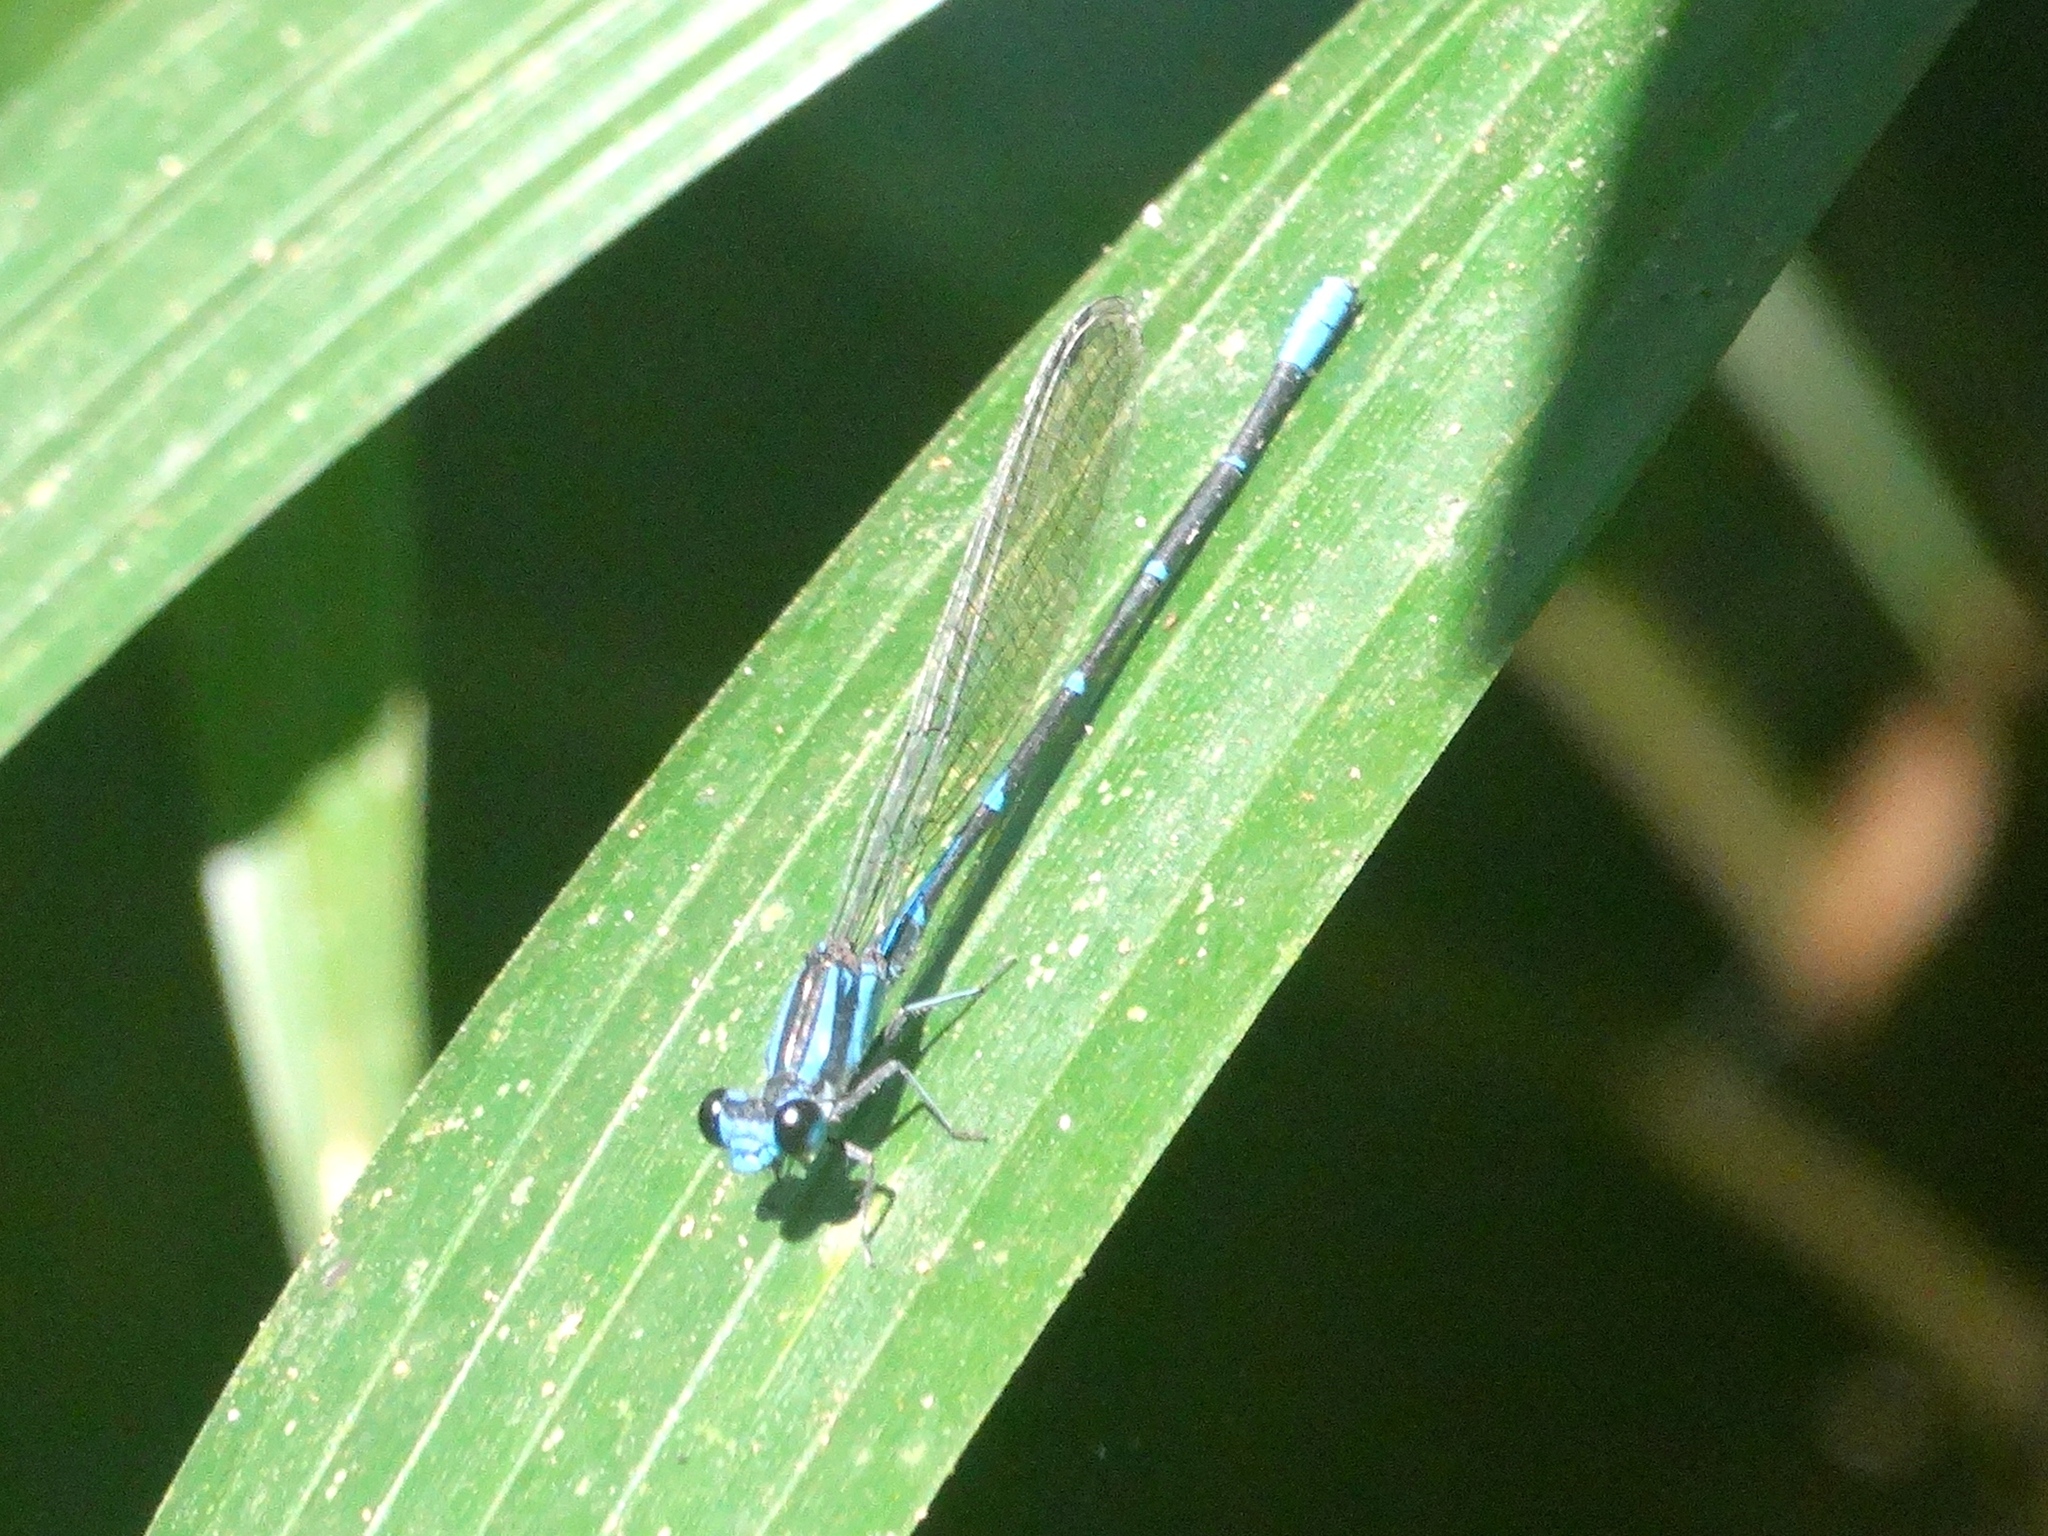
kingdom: Animalia
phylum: Arthropoda
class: Insecta
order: Odonata
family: Coenagrionidae
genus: Argia
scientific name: Argia oculata
